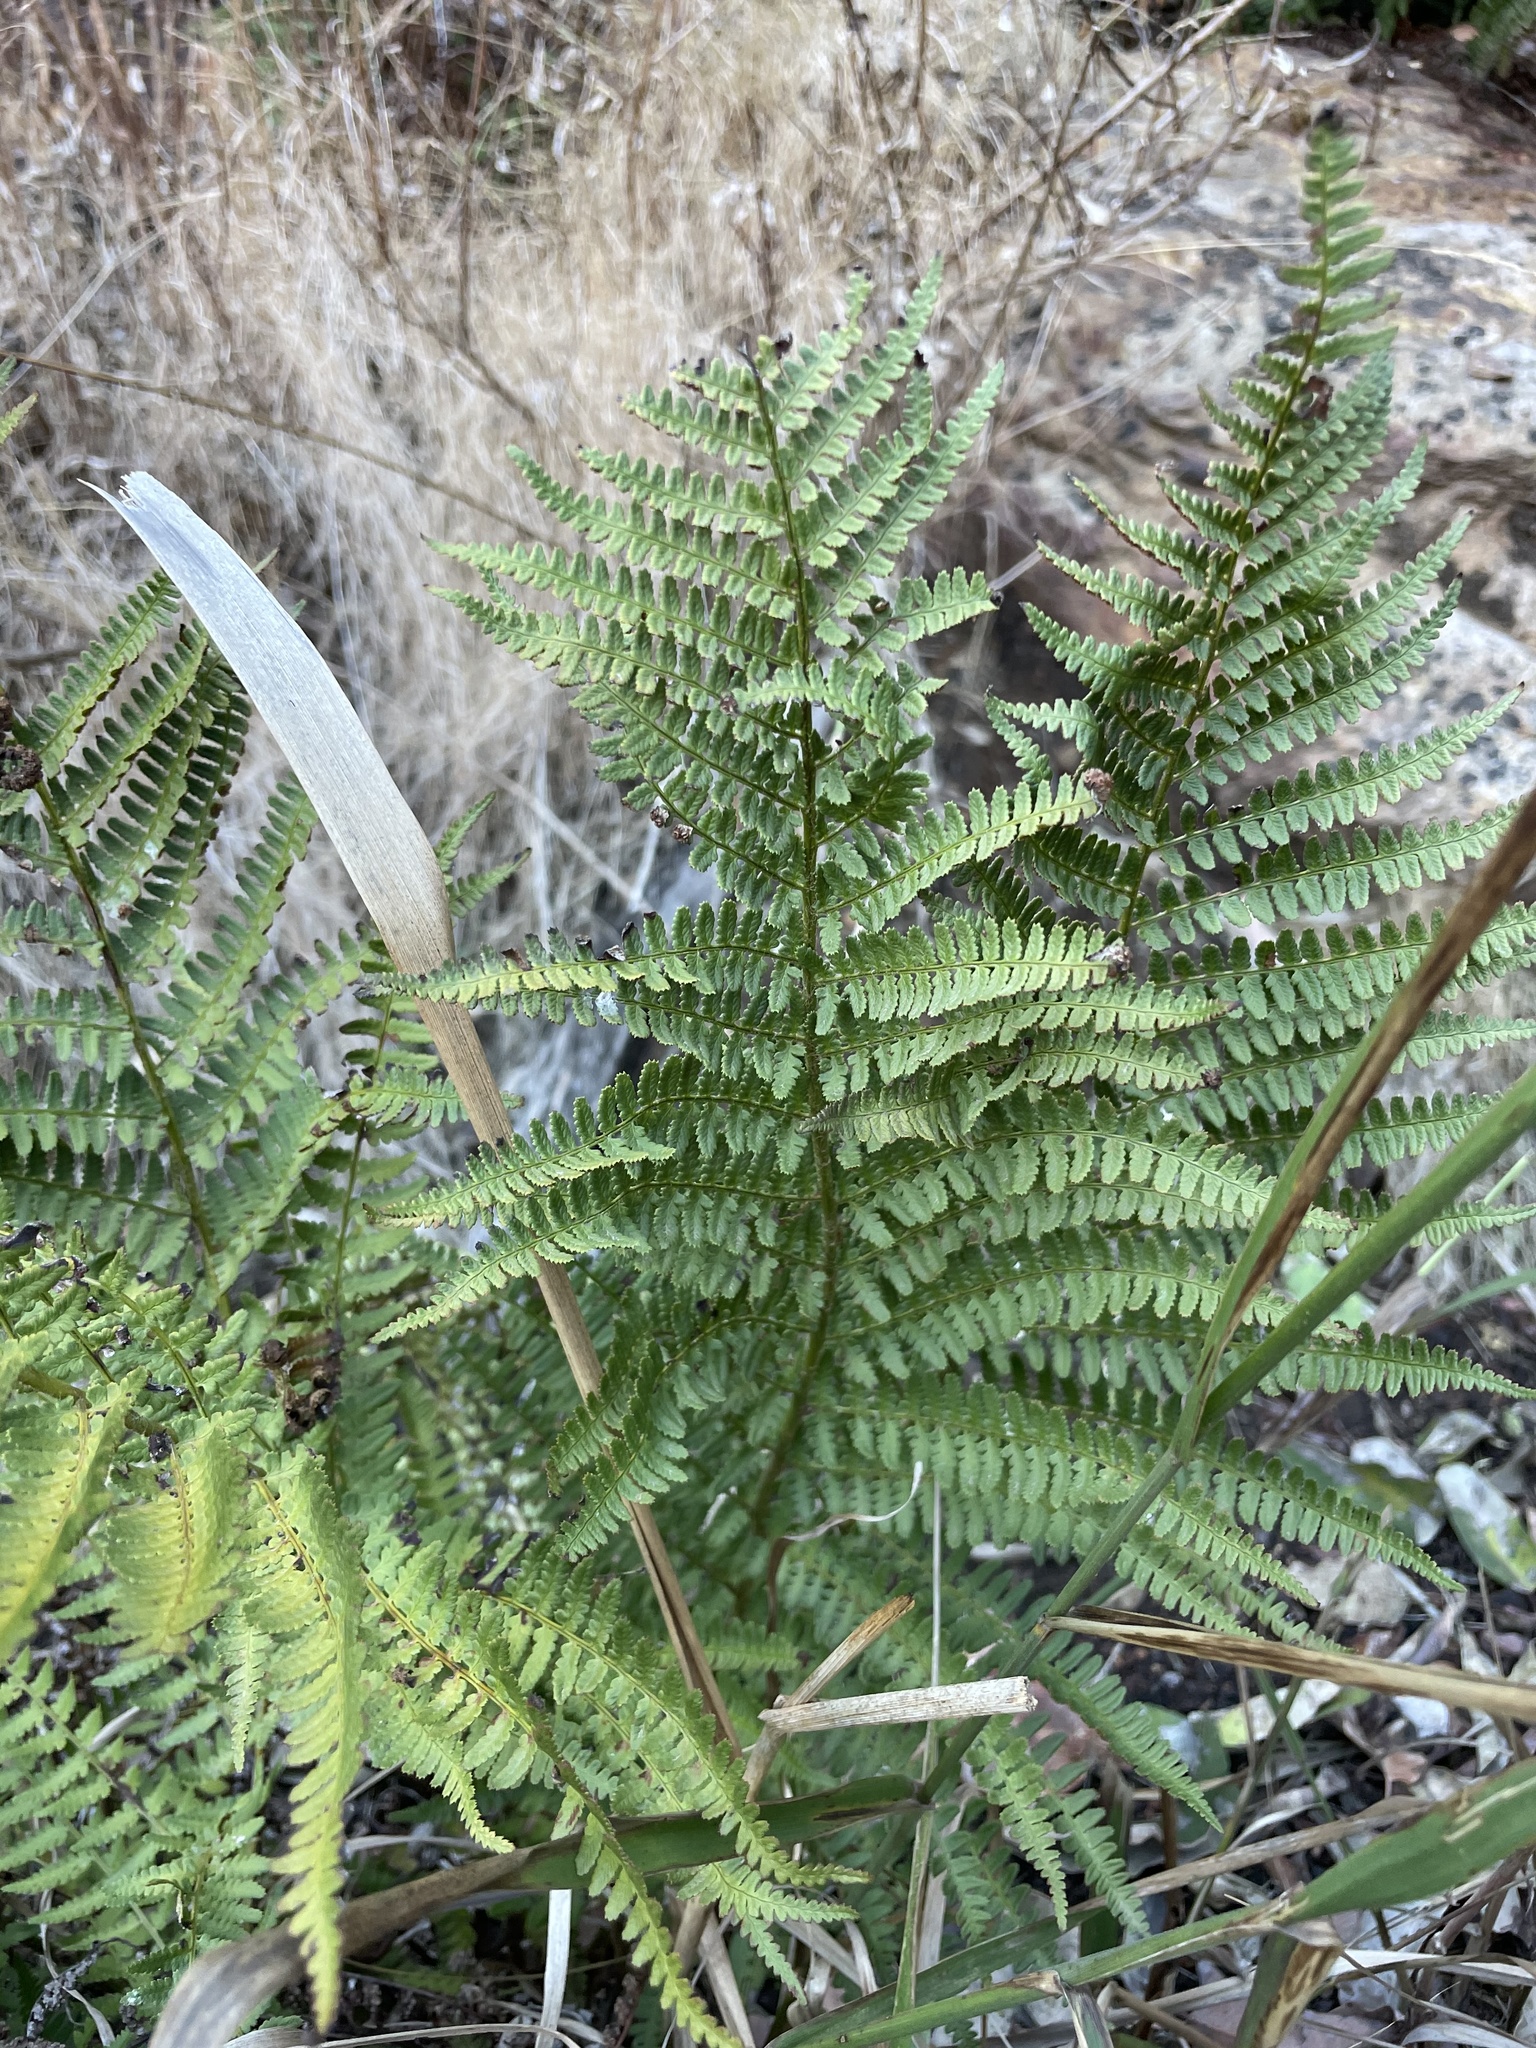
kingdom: Plantae
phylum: Tracheophyta
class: Polypodiopsida
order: Polypodiales
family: Dryopteridaceae
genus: Dryopteris
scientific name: Dryopteris arguta
